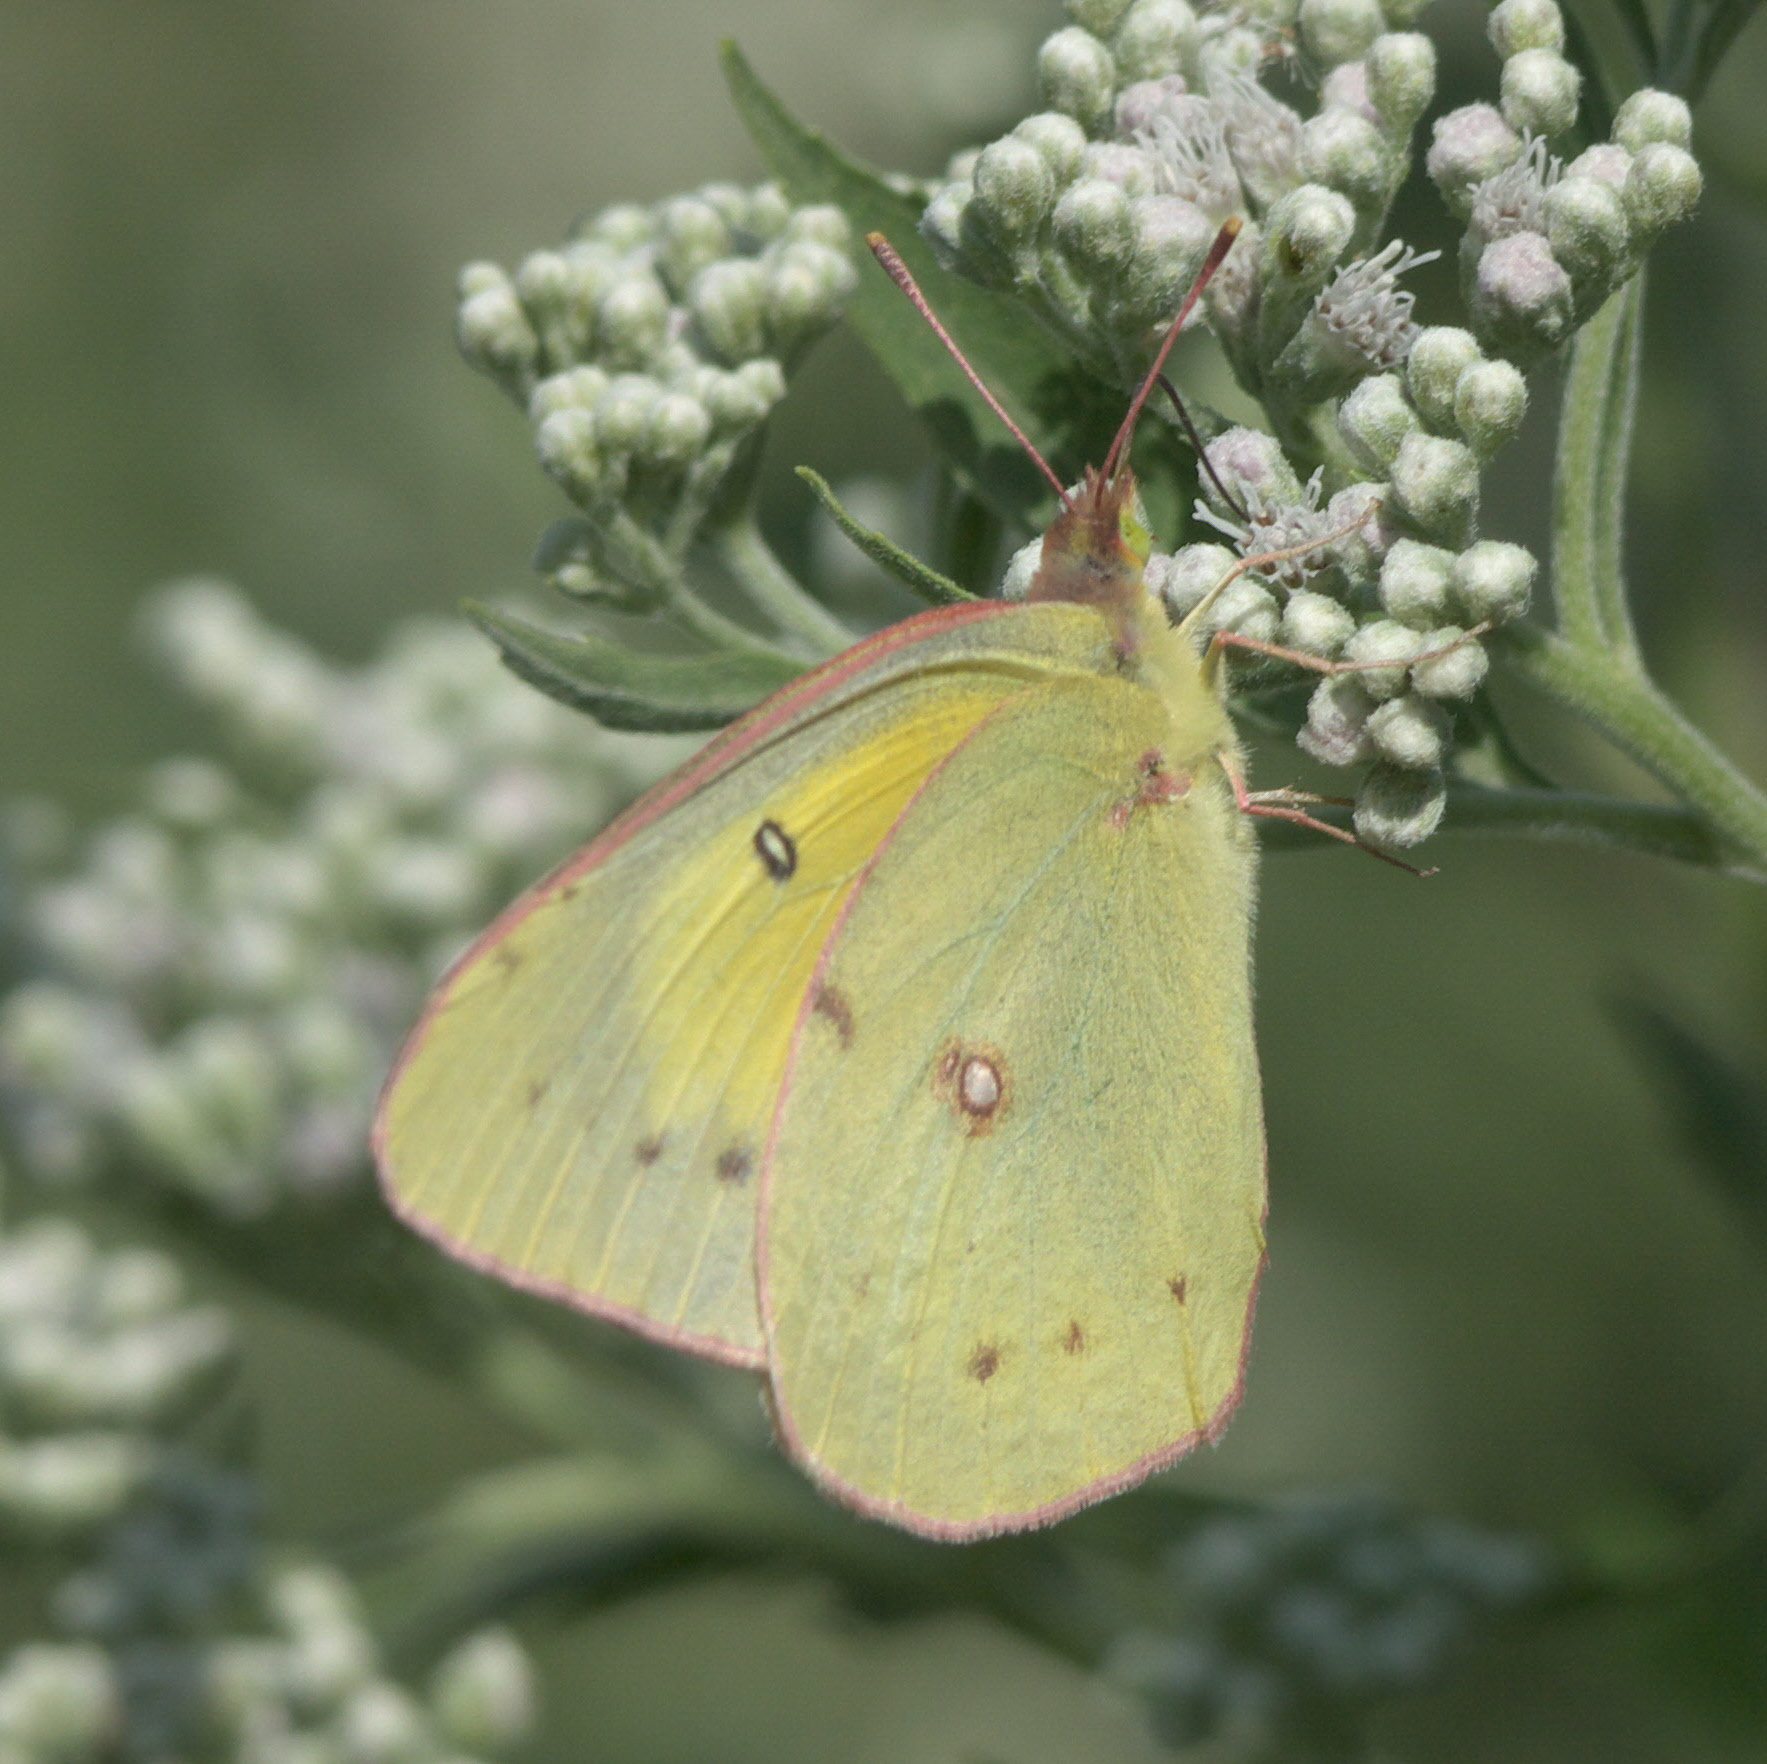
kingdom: Animalia
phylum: Arthropoda
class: Insecta
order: Lepidoptera
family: Pieridae
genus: Colias
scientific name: Colias eurytheme
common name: Alfalfa butterfly
